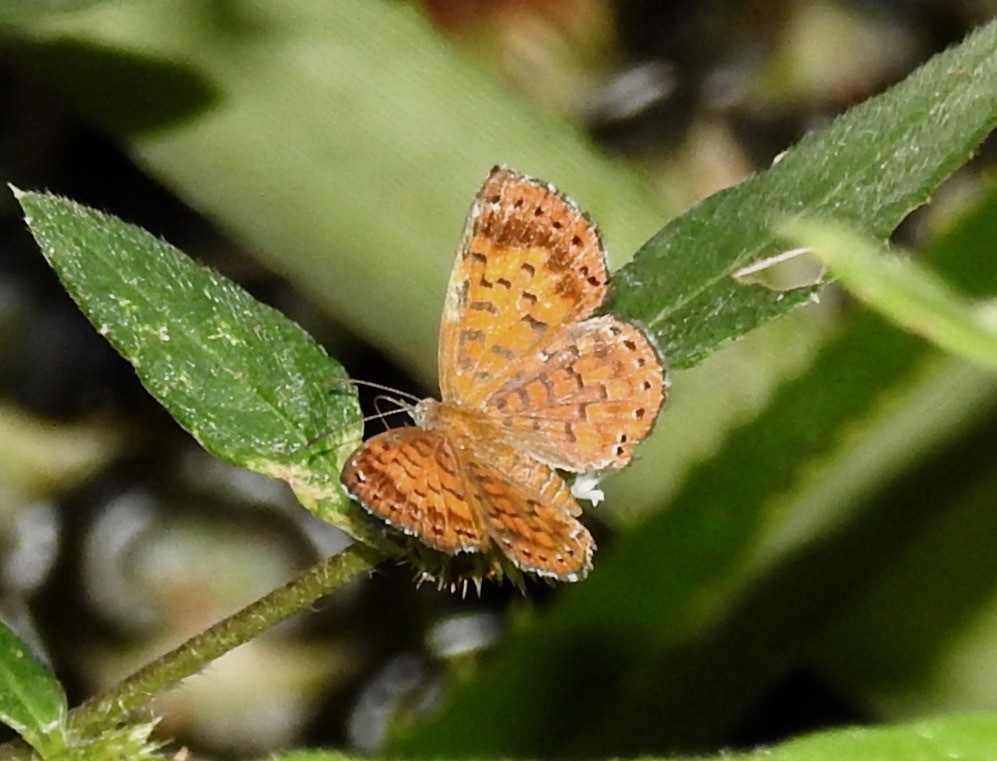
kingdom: Animalia
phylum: Arthropoda
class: Insecta
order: Lepidoptera
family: Riodinidae
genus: Polystichtis
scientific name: Polystichtis lucianus
